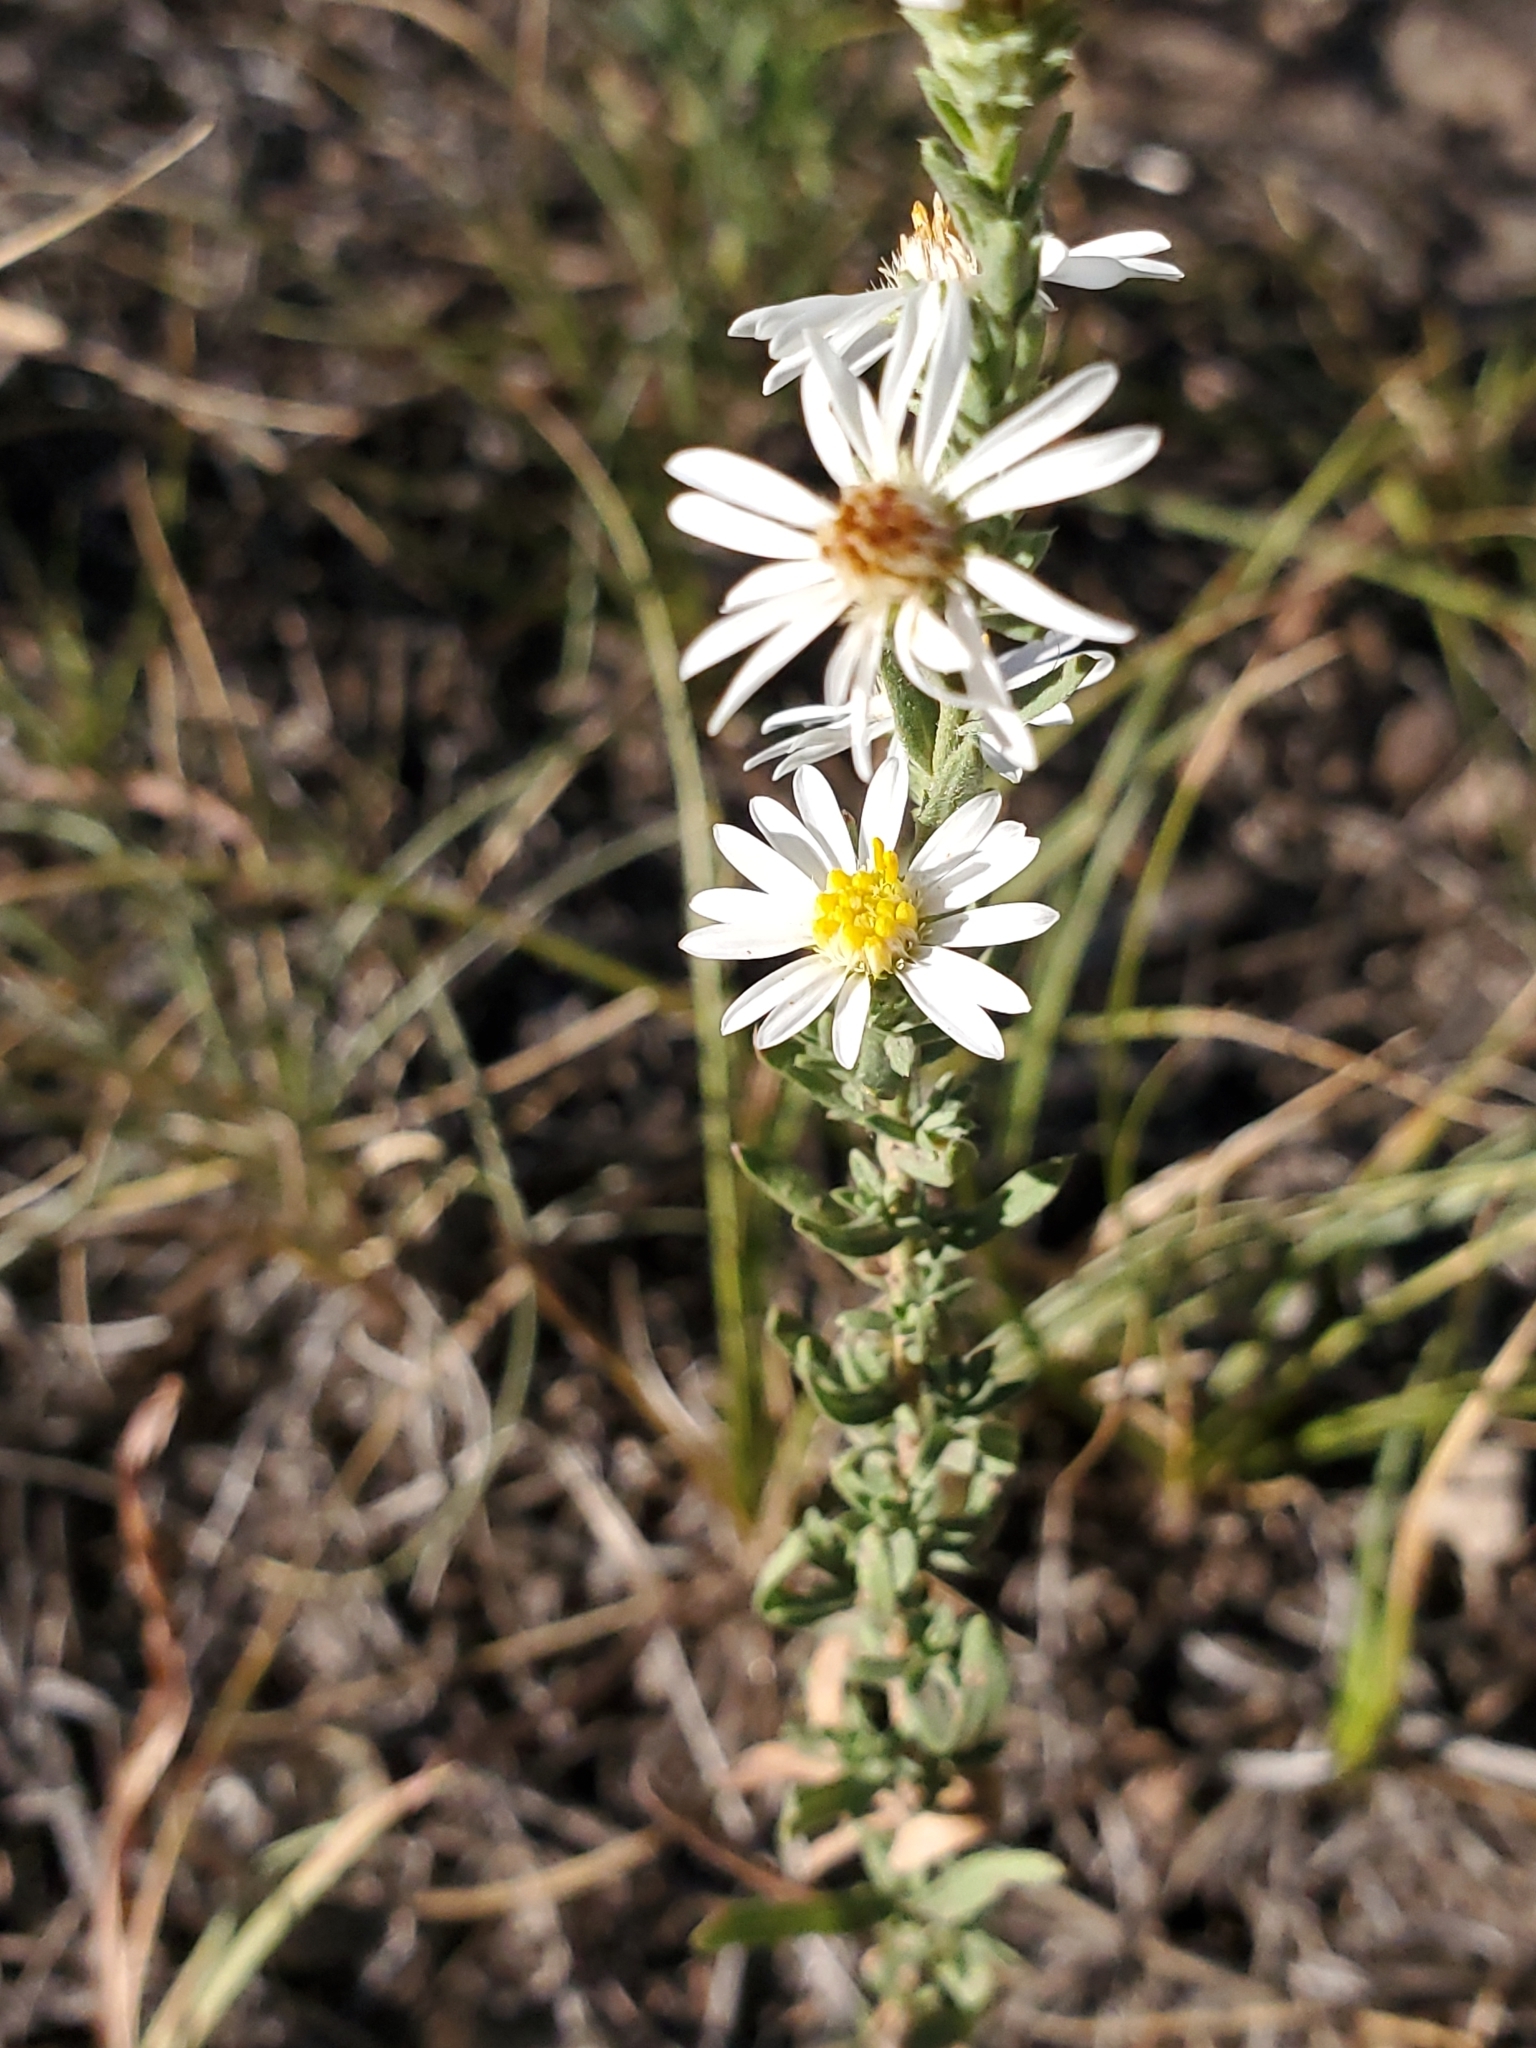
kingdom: Plantae
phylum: Tracheophyta
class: Magnoliopsida
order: Asterales
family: Asteraceae
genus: Symphyotrichum
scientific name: Symphyotrichum ericoides
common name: Heath aster
